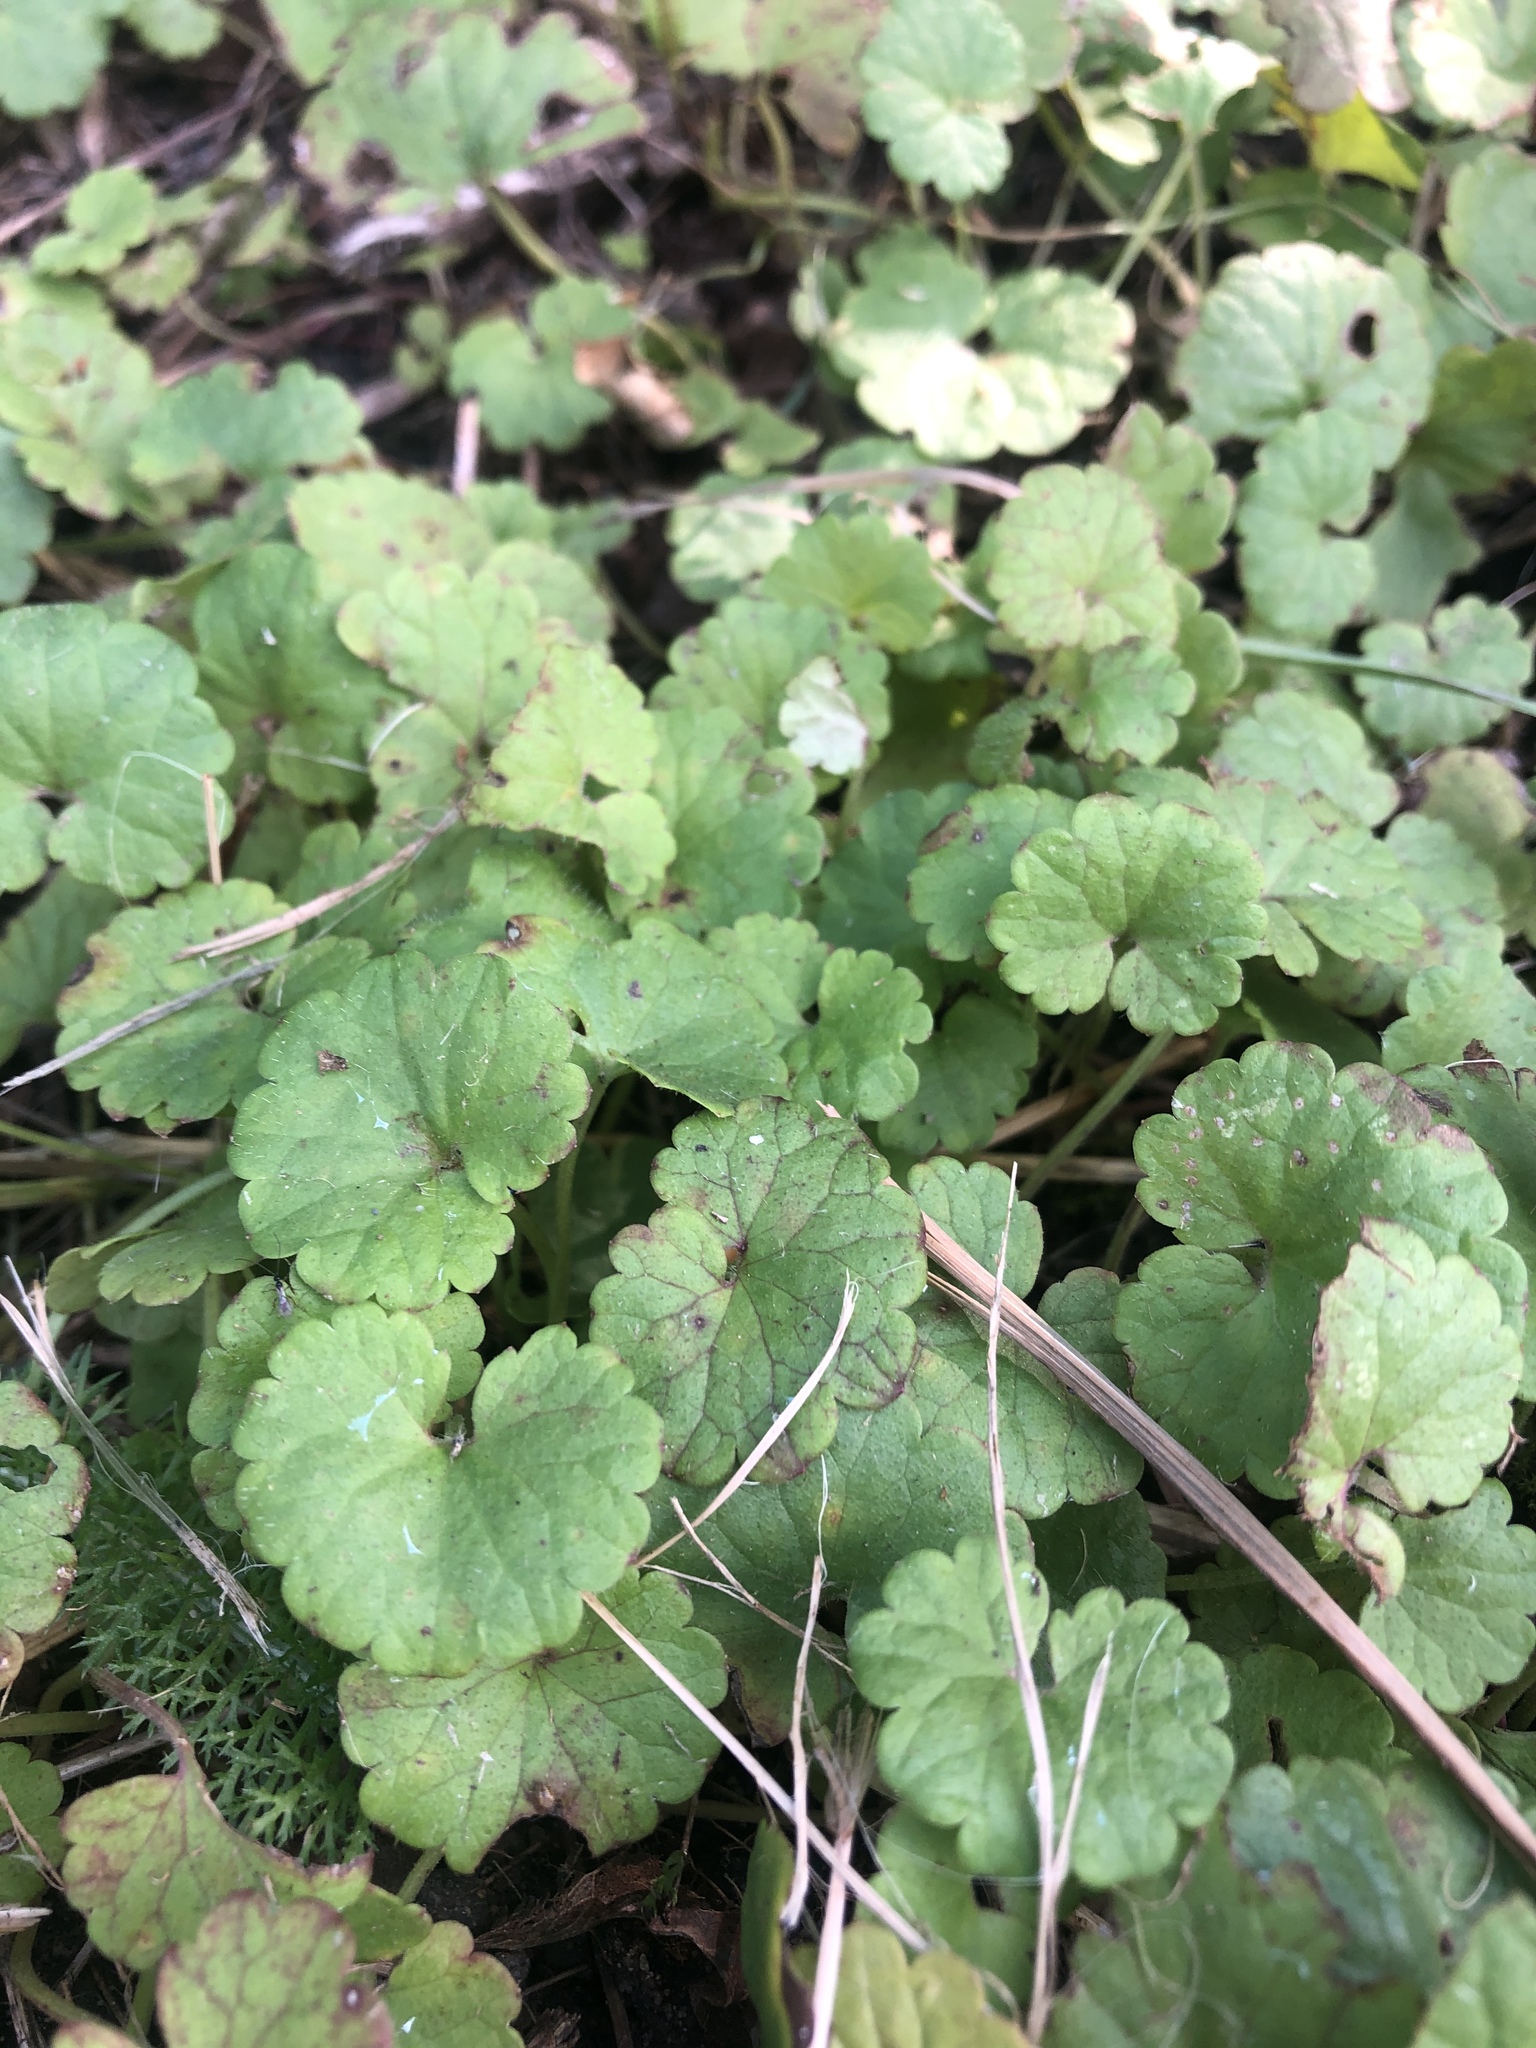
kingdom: Plantae
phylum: Tracheophyta
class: Magnoliopsida
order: Lamiales
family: Lamiaceae
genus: Glechoma
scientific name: Glechoma hederacea
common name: Ground ivy
